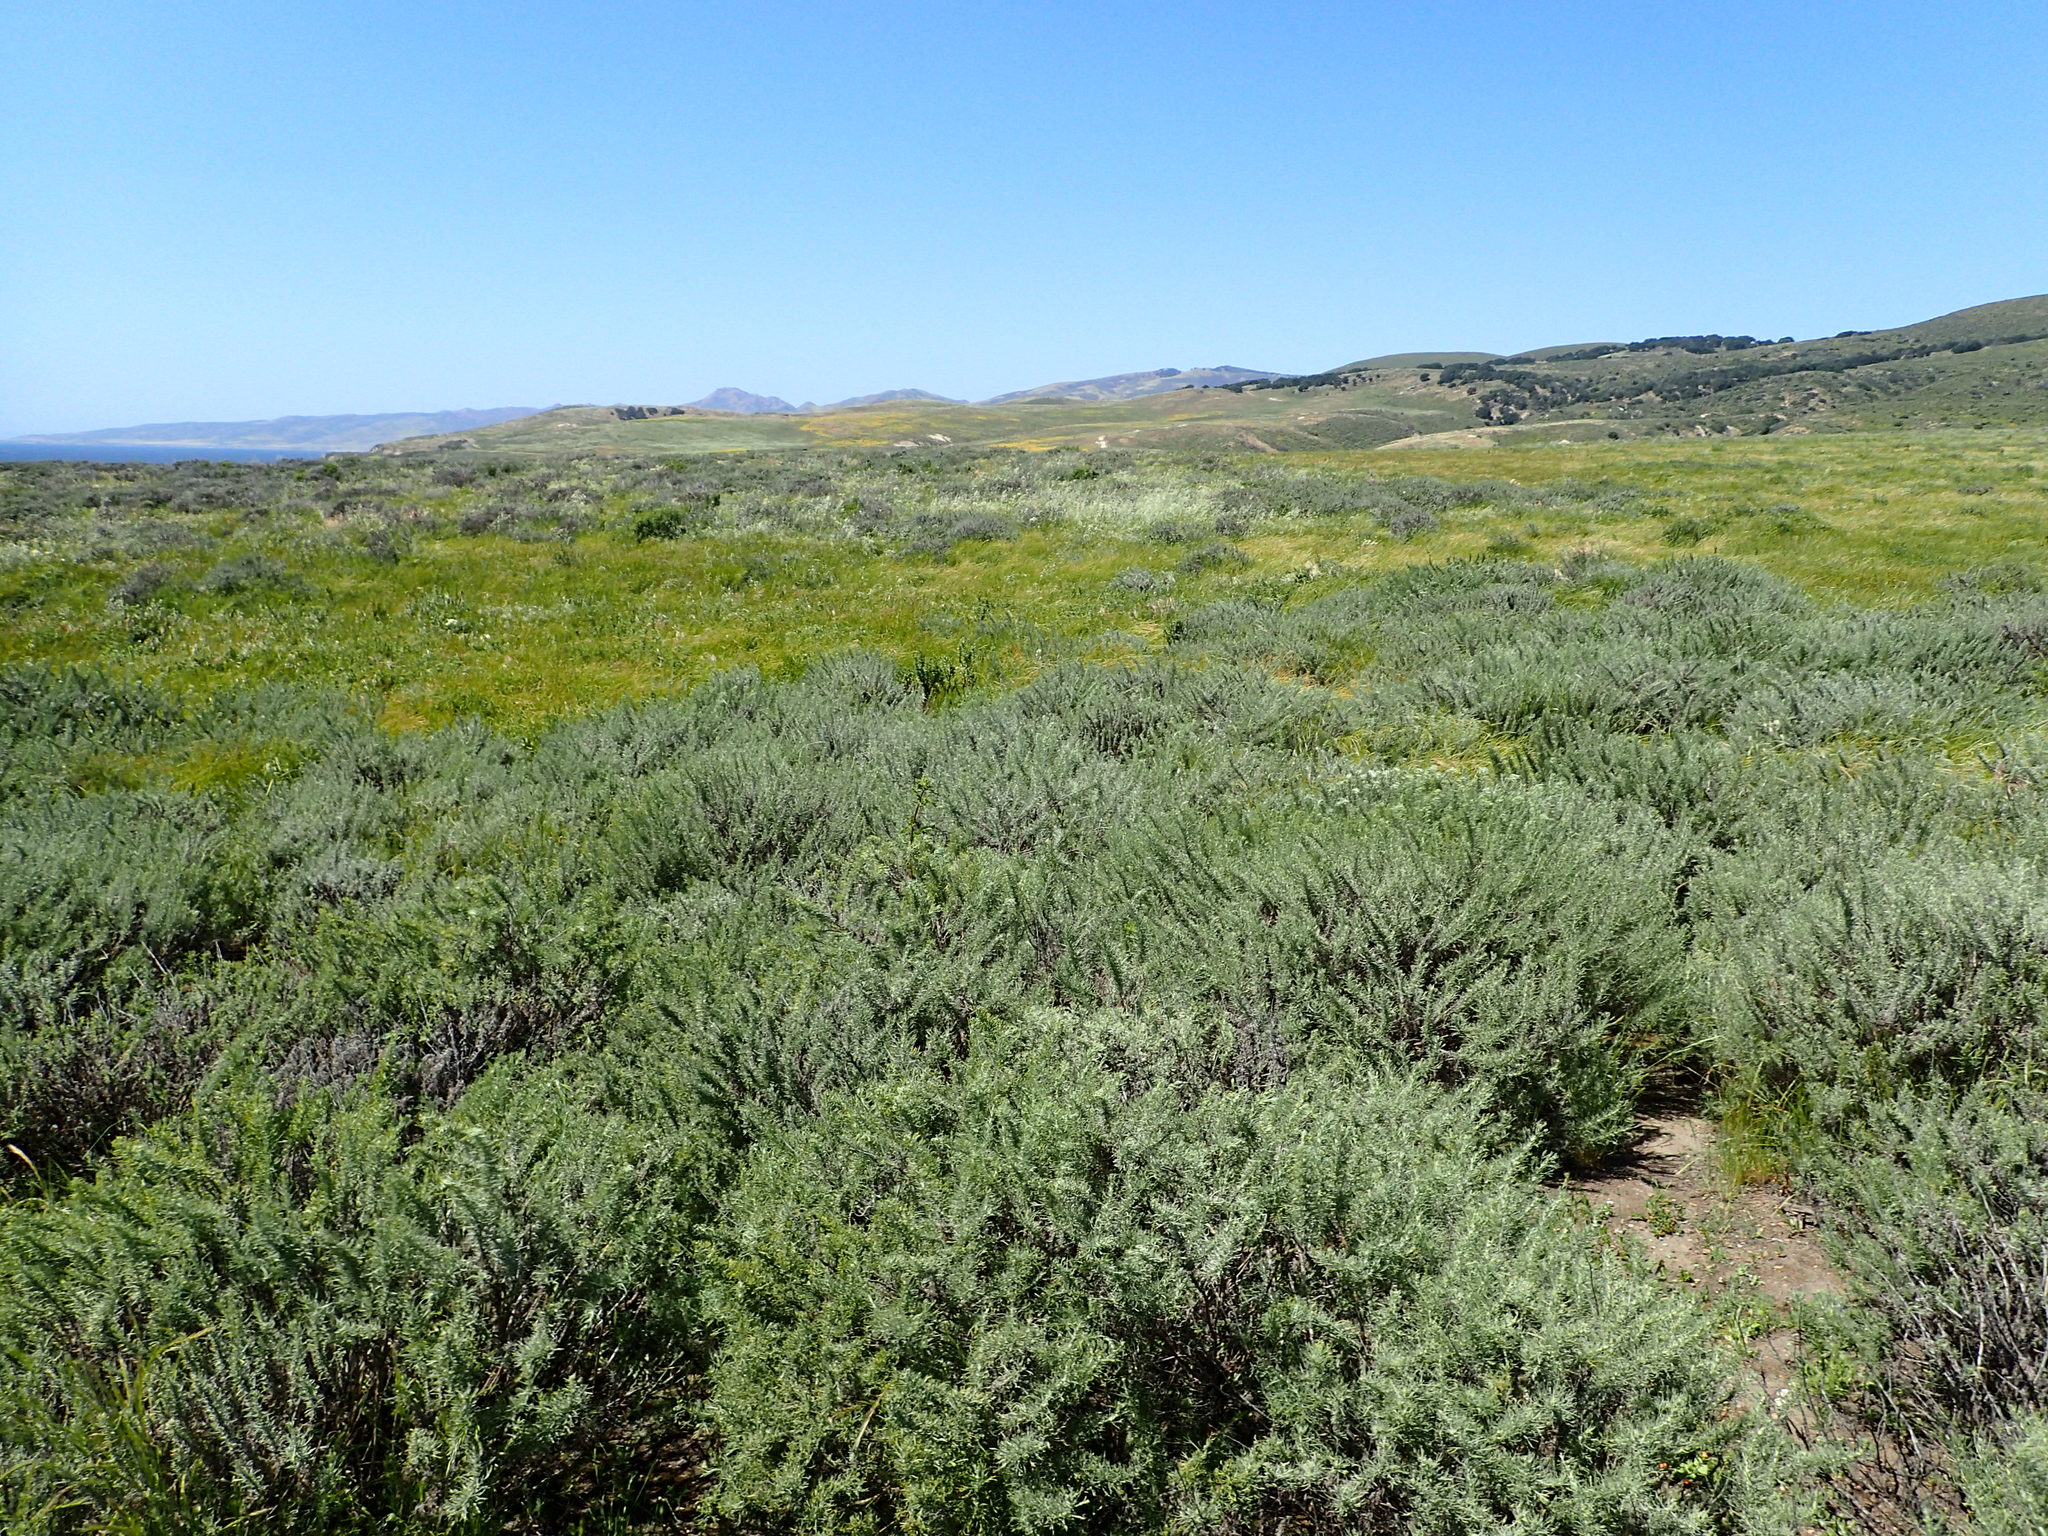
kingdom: Plantae
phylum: Tracheophyta
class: Magnoliopsida
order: Asterales
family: Asteraceae
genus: Artemisia
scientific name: Artemisia californica
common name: California sagebrush
